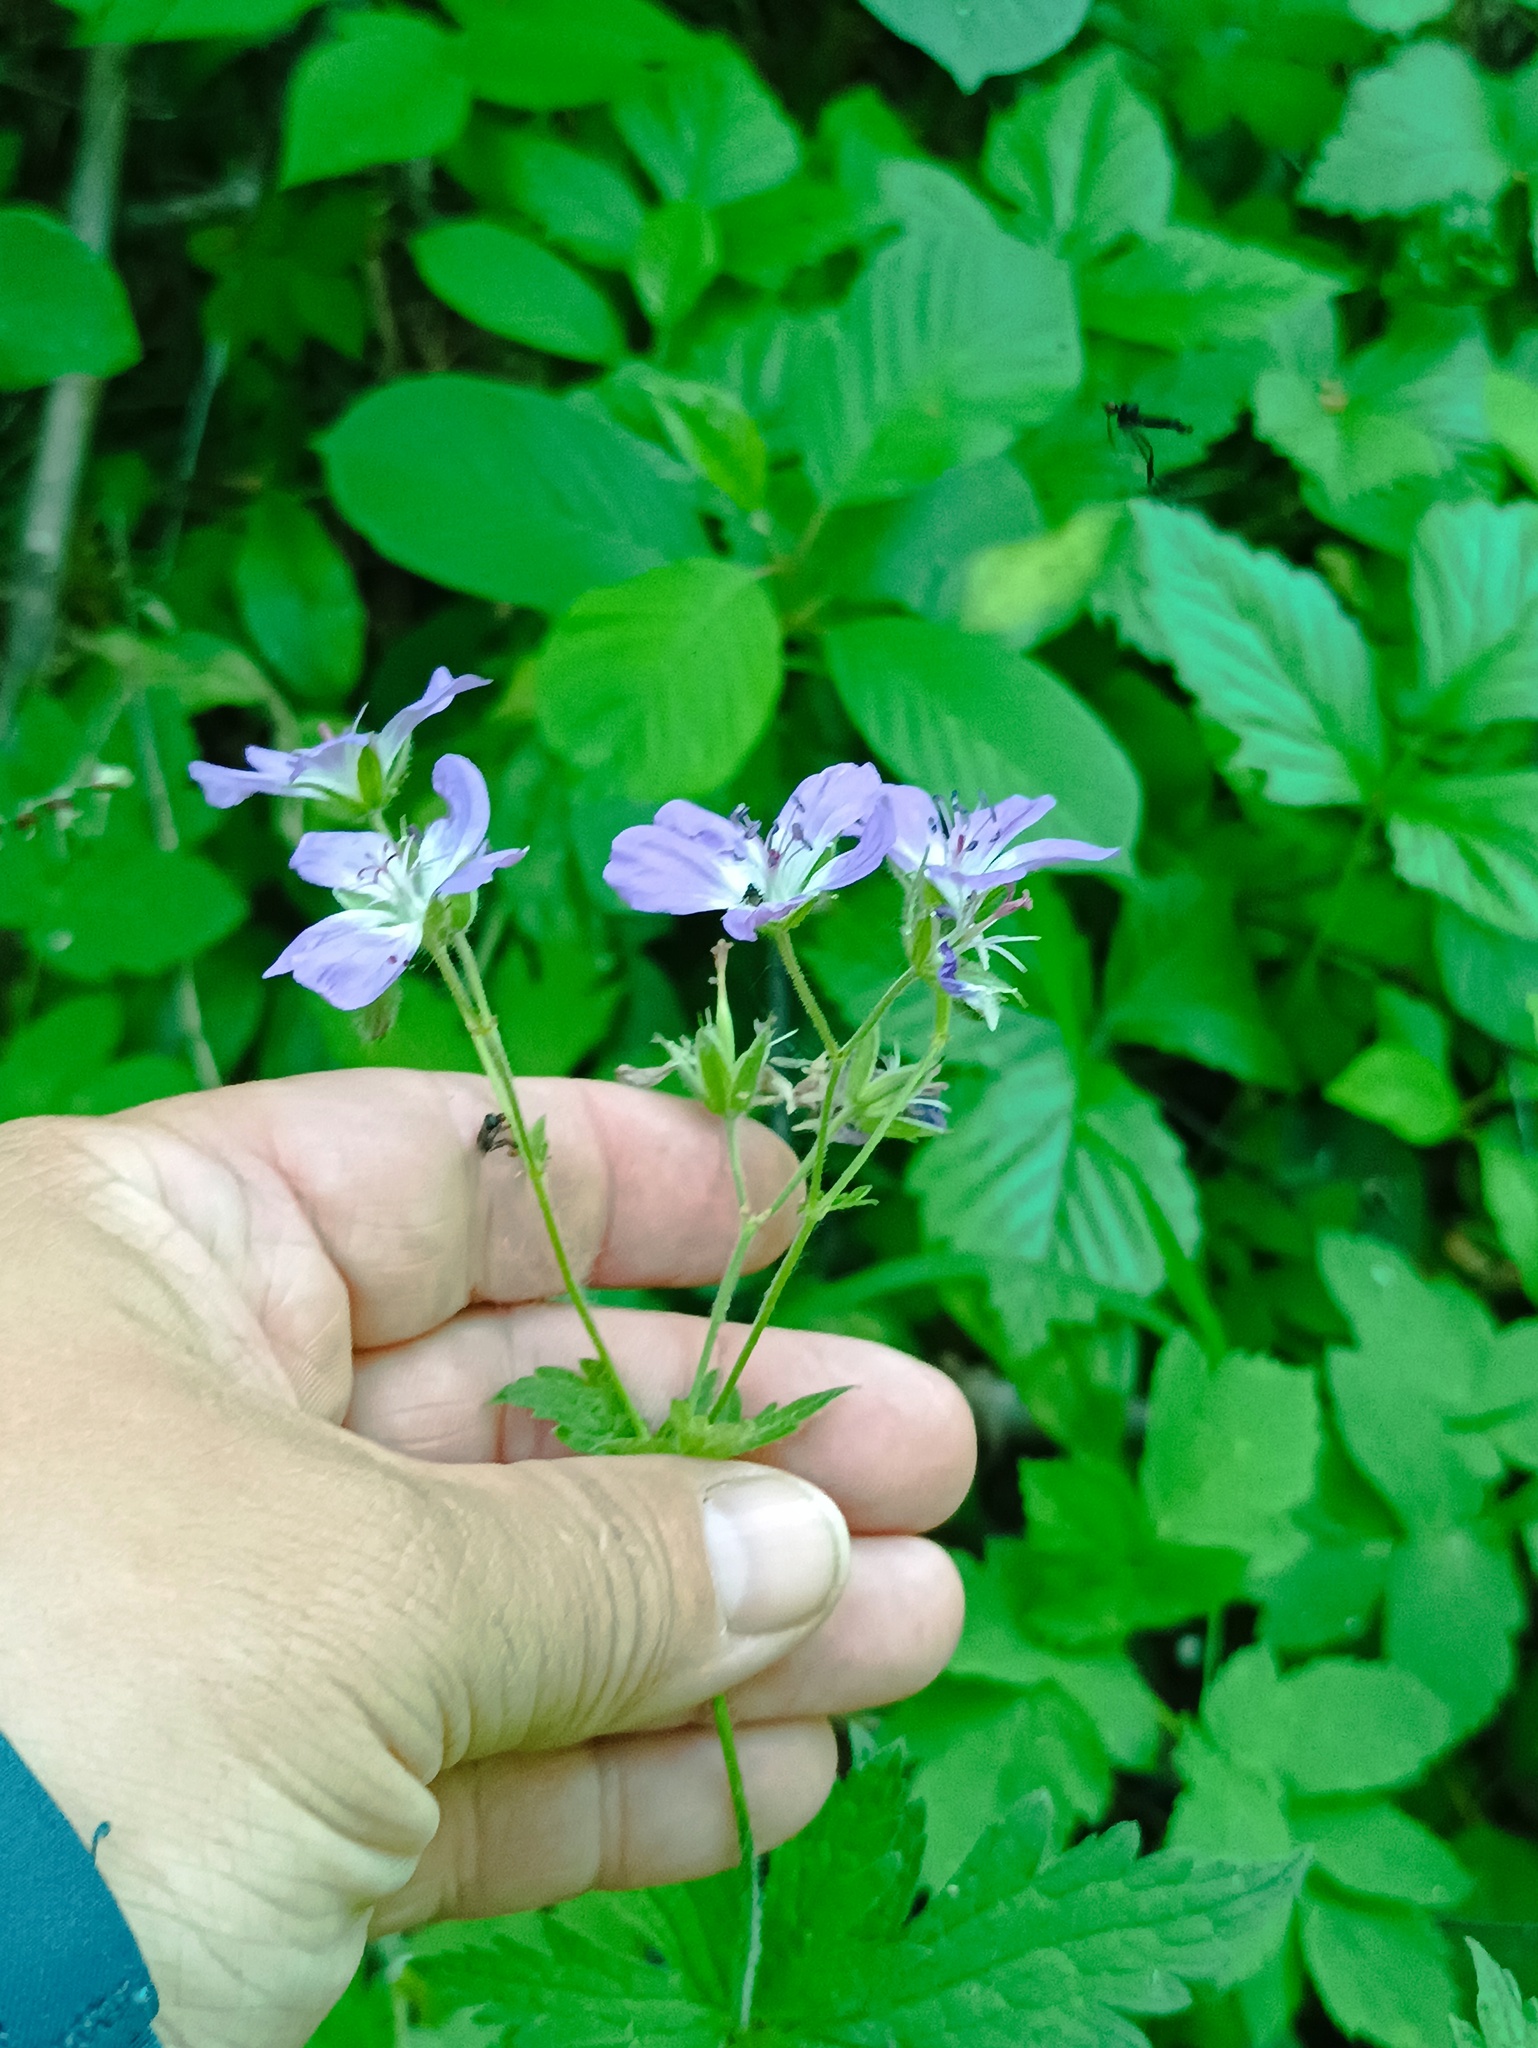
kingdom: Plantae
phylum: Tracheophyta
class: Magnoliopsida
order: Geraniales
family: Geraniaceae
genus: Geranium
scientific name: Geranium sylvaticum
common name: Wood crane's-bill
